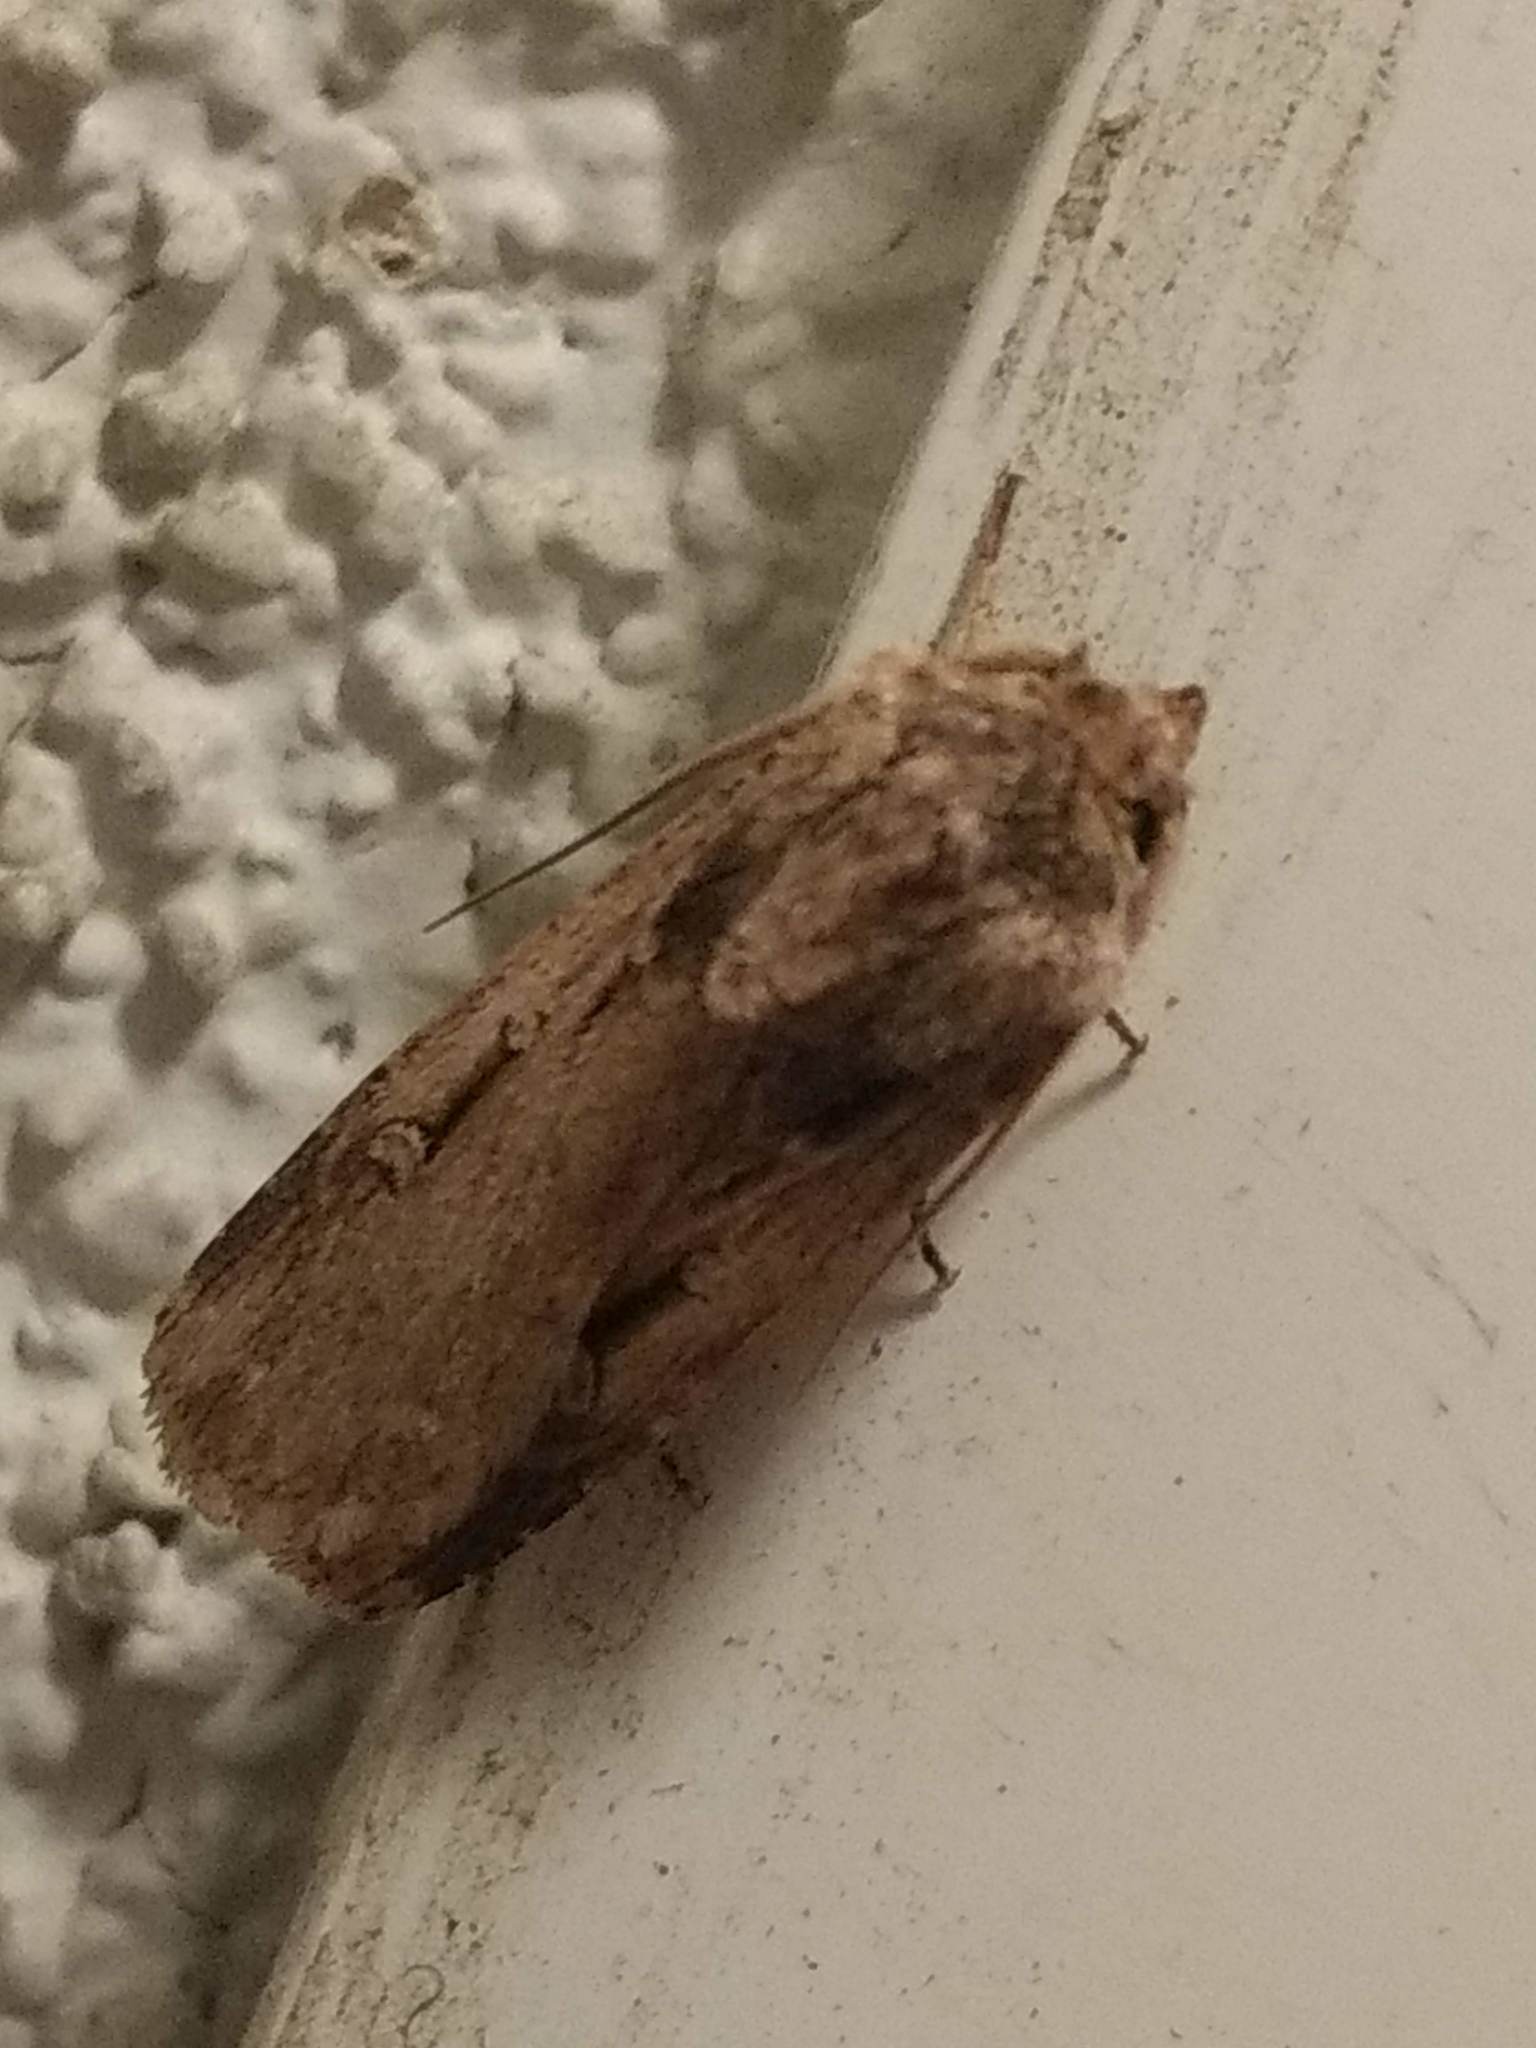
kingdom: Animalia
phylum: Arthropoda
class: Insecta
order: Lepidoptera
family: Noctuidae
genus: Feltia
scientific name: Feltia subterranea
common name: Granulate cutworm
